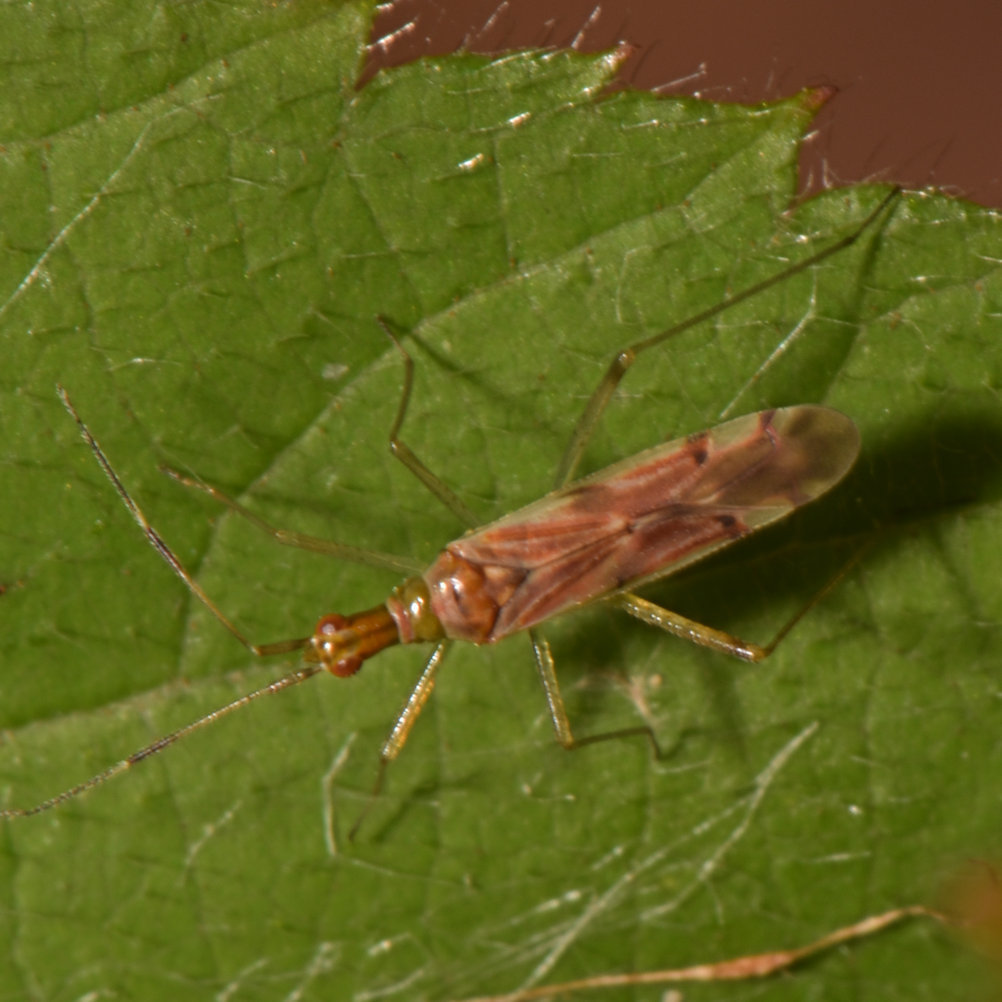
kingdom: Animalia
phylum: Arthropoda
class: Insecta
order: Hemiptera
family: Miridae
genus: Dicyphus
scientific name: Dicyphus famelicus
